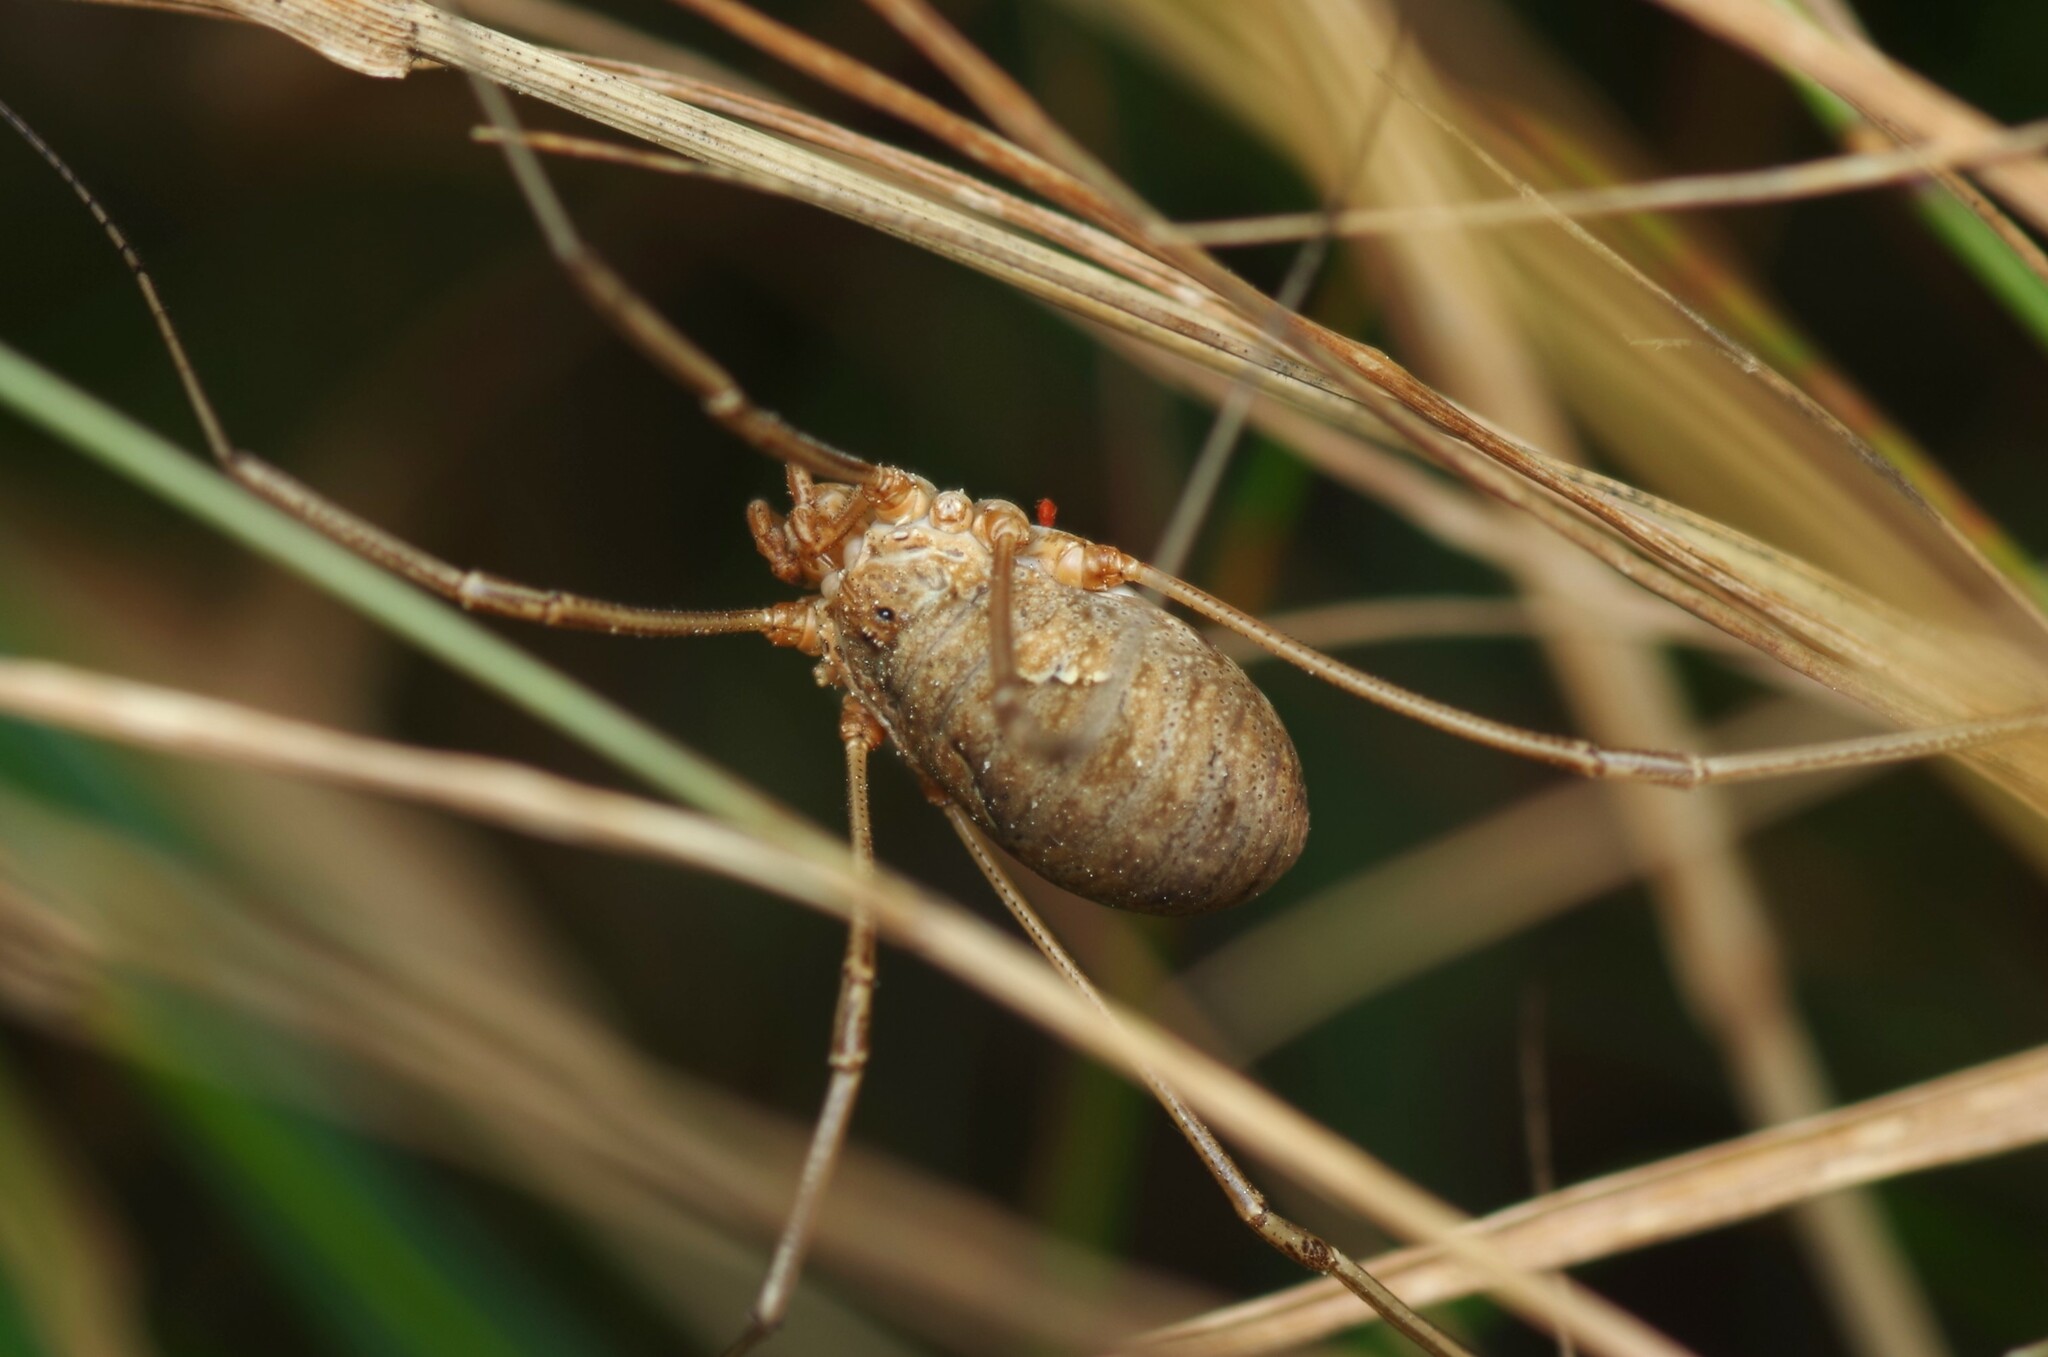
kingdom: Animalia
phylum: Arthropoda
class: Arachnida
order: Opiliones
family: Phalangiidae
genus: Phalangium
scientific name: Phalangium opilio
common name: Daddy longleg
